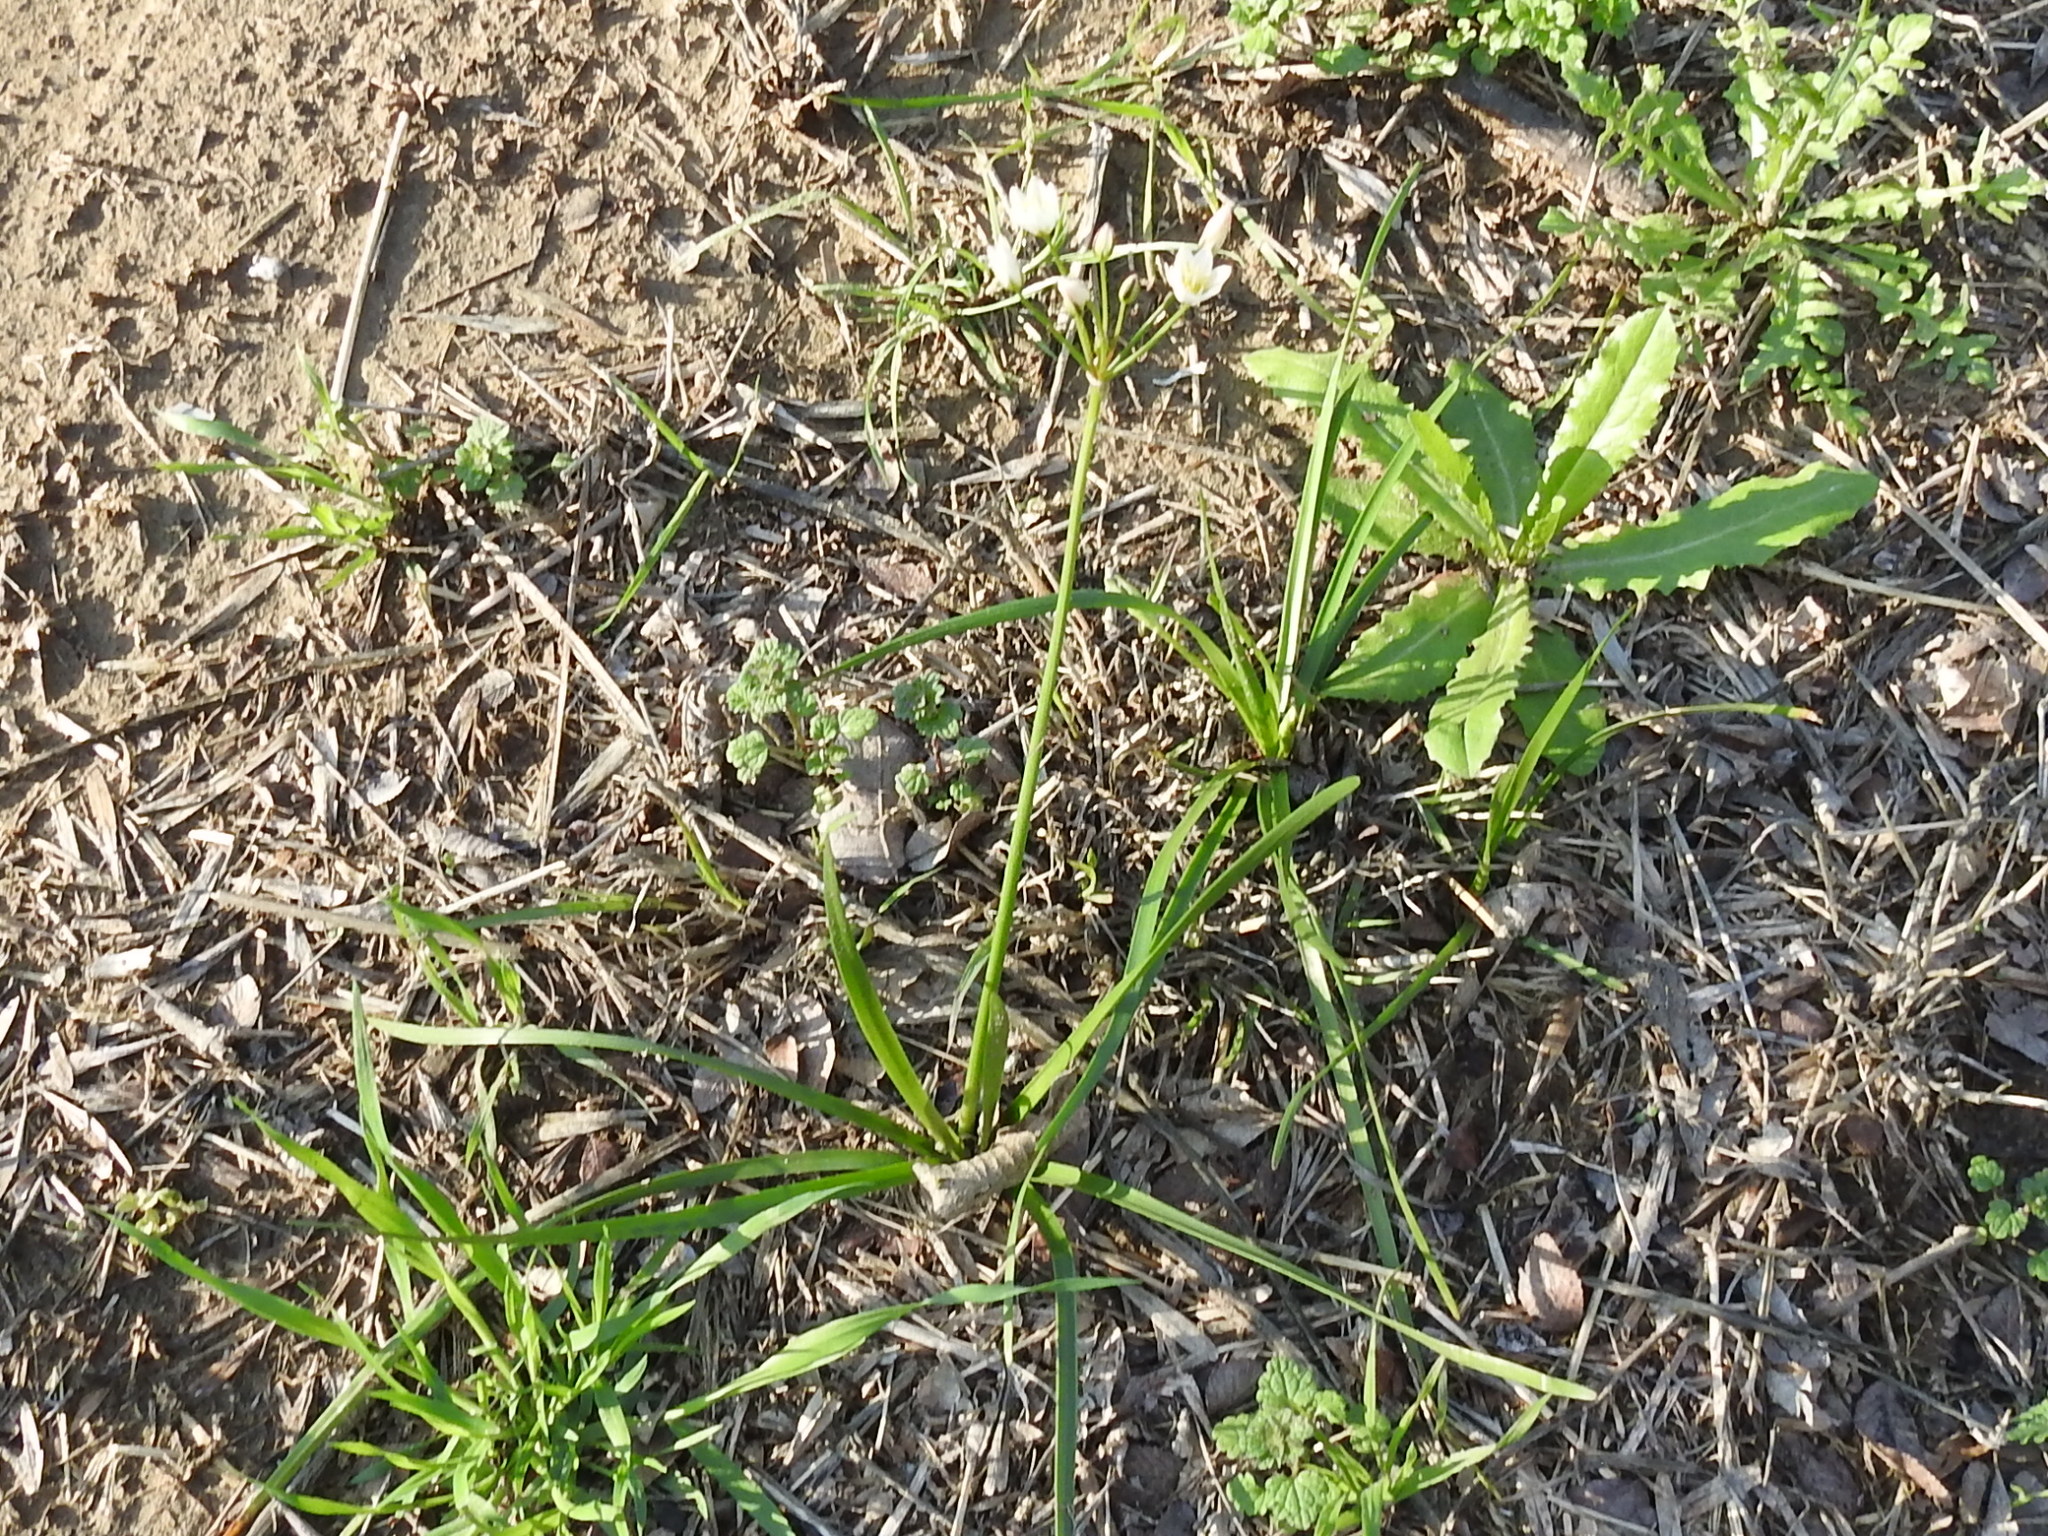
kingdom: Plantae
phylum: Tracheophyta
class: Liliopsida
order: Asparagales
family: Amaryllidaceae
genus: Nothoscordum
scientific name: Nothoscordum bivalve
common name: Crow-poison
